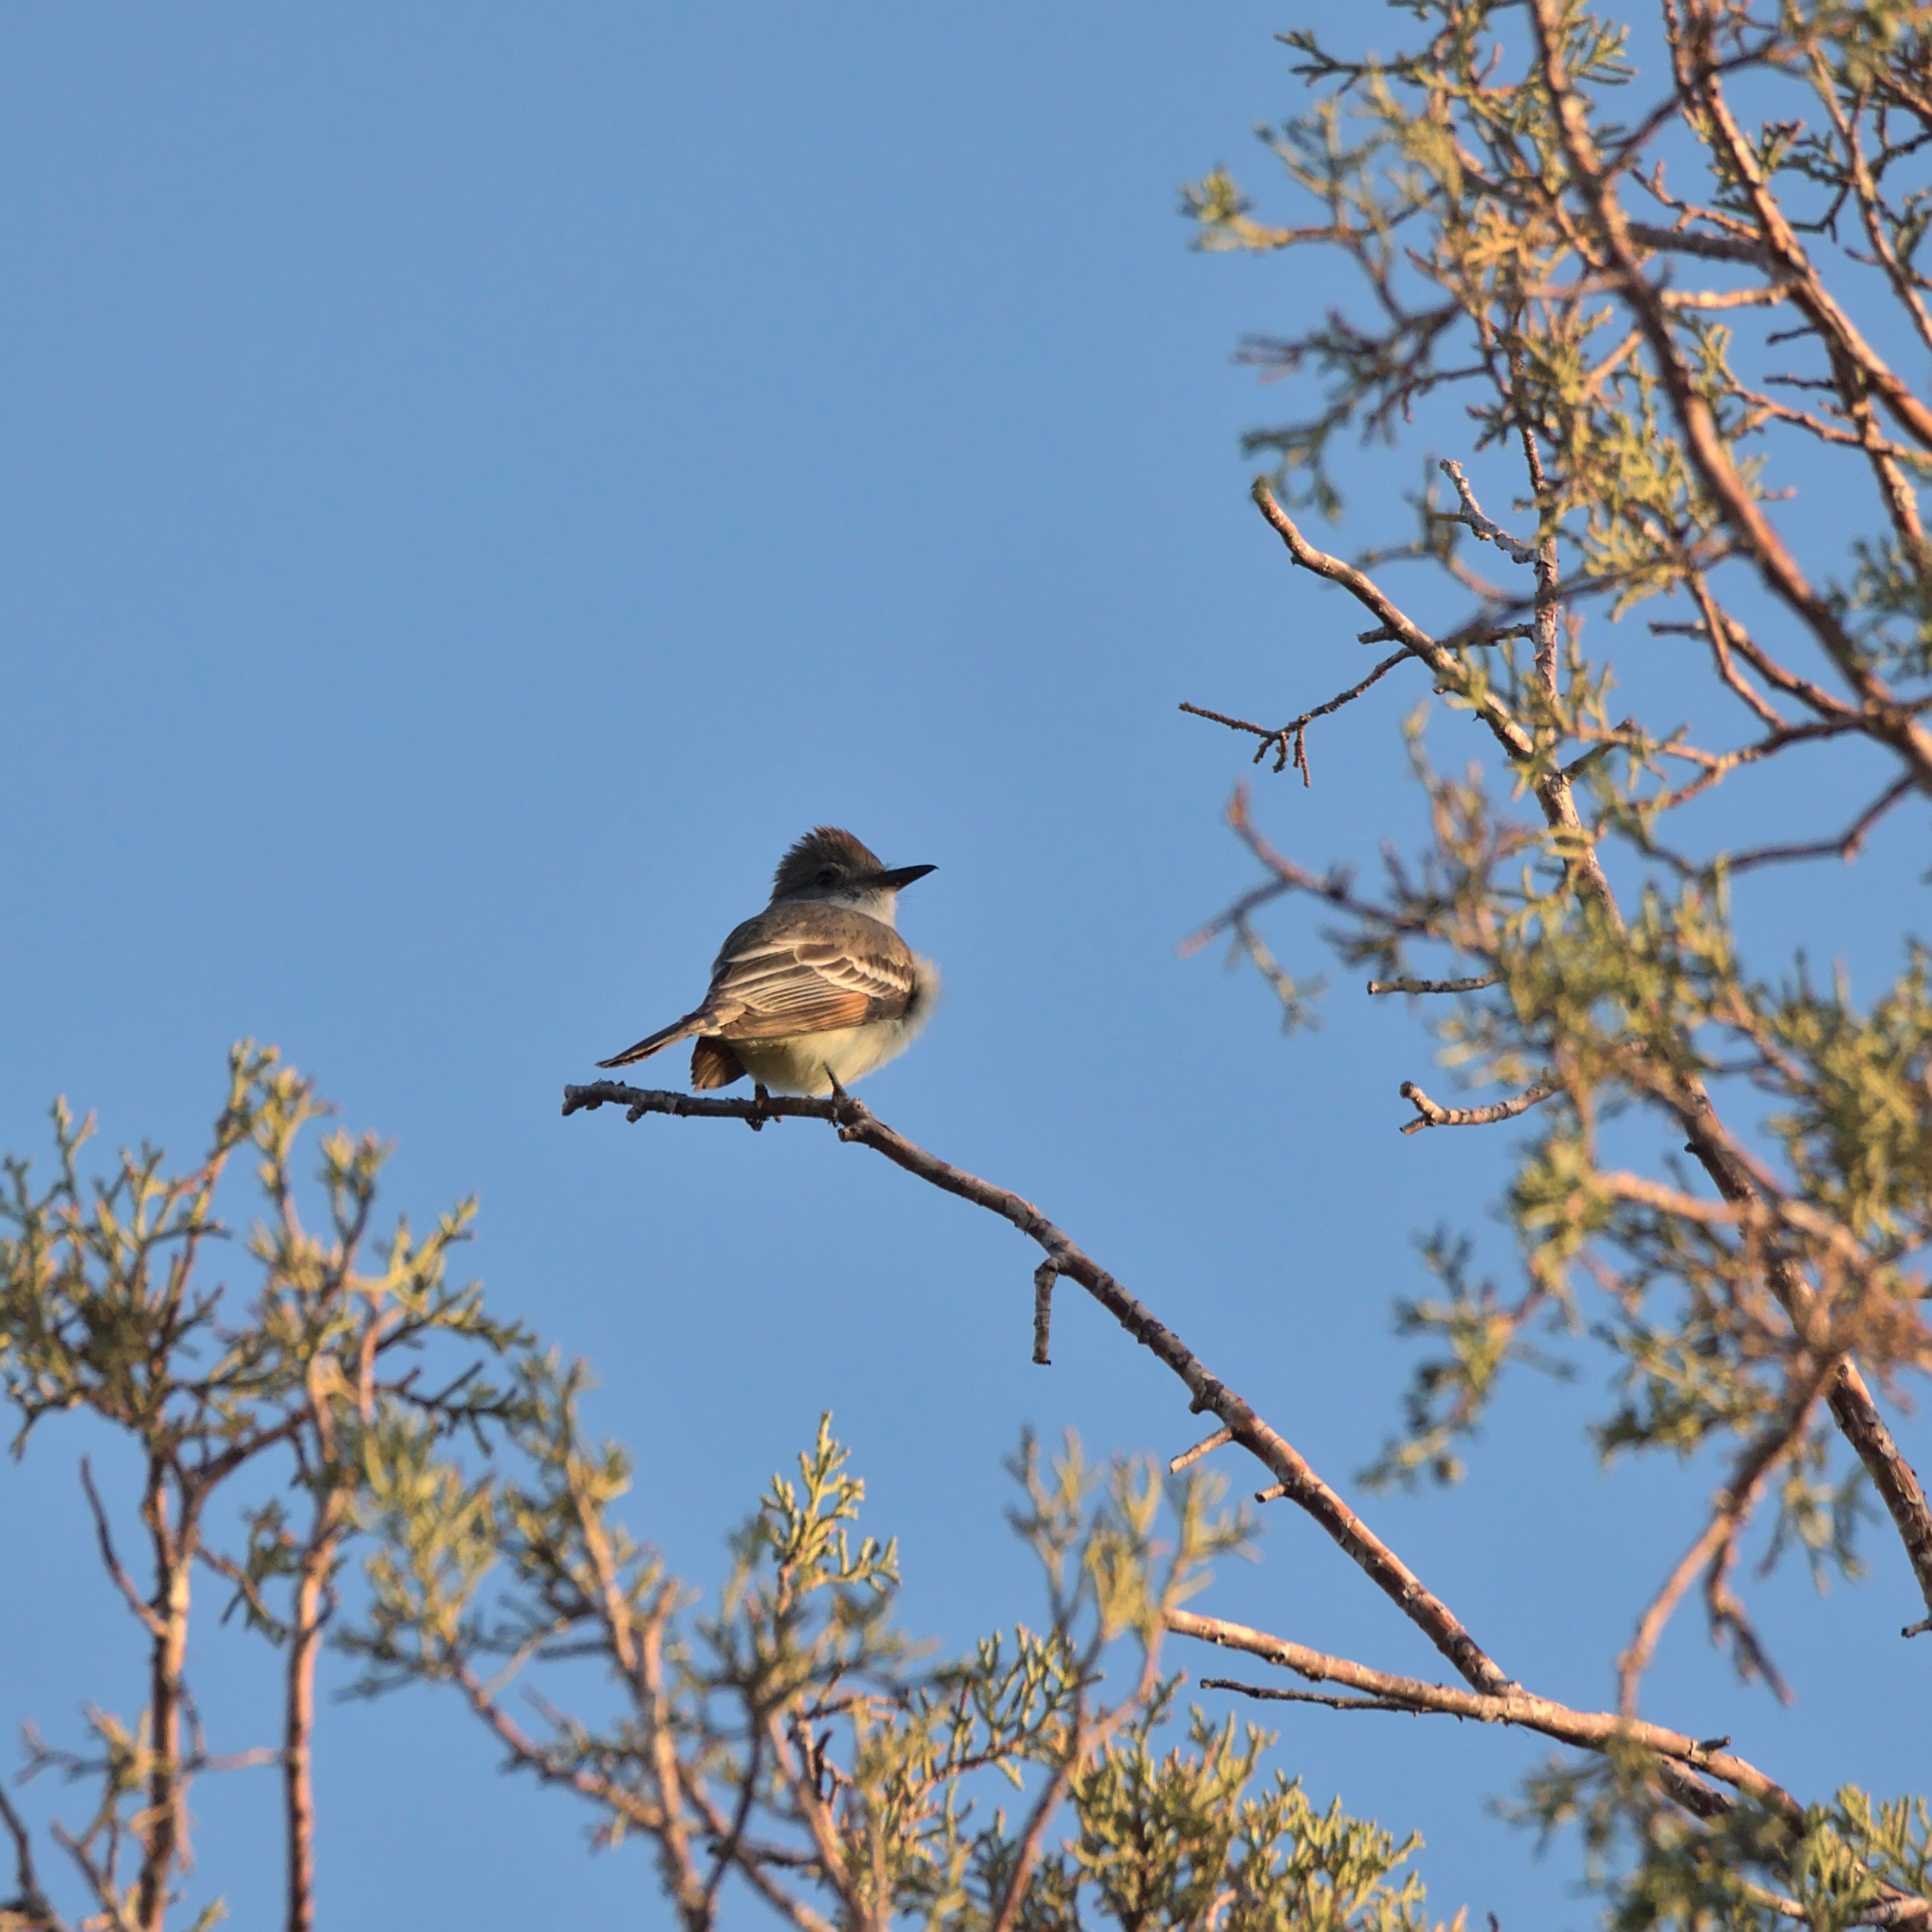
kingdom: Animalia
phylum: Chordata
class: Aves
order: Passeriformes
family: Tyrannidae
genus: Myiarchus
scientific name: Myiarchus cinerascens
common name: Ash-throated flycatcher
